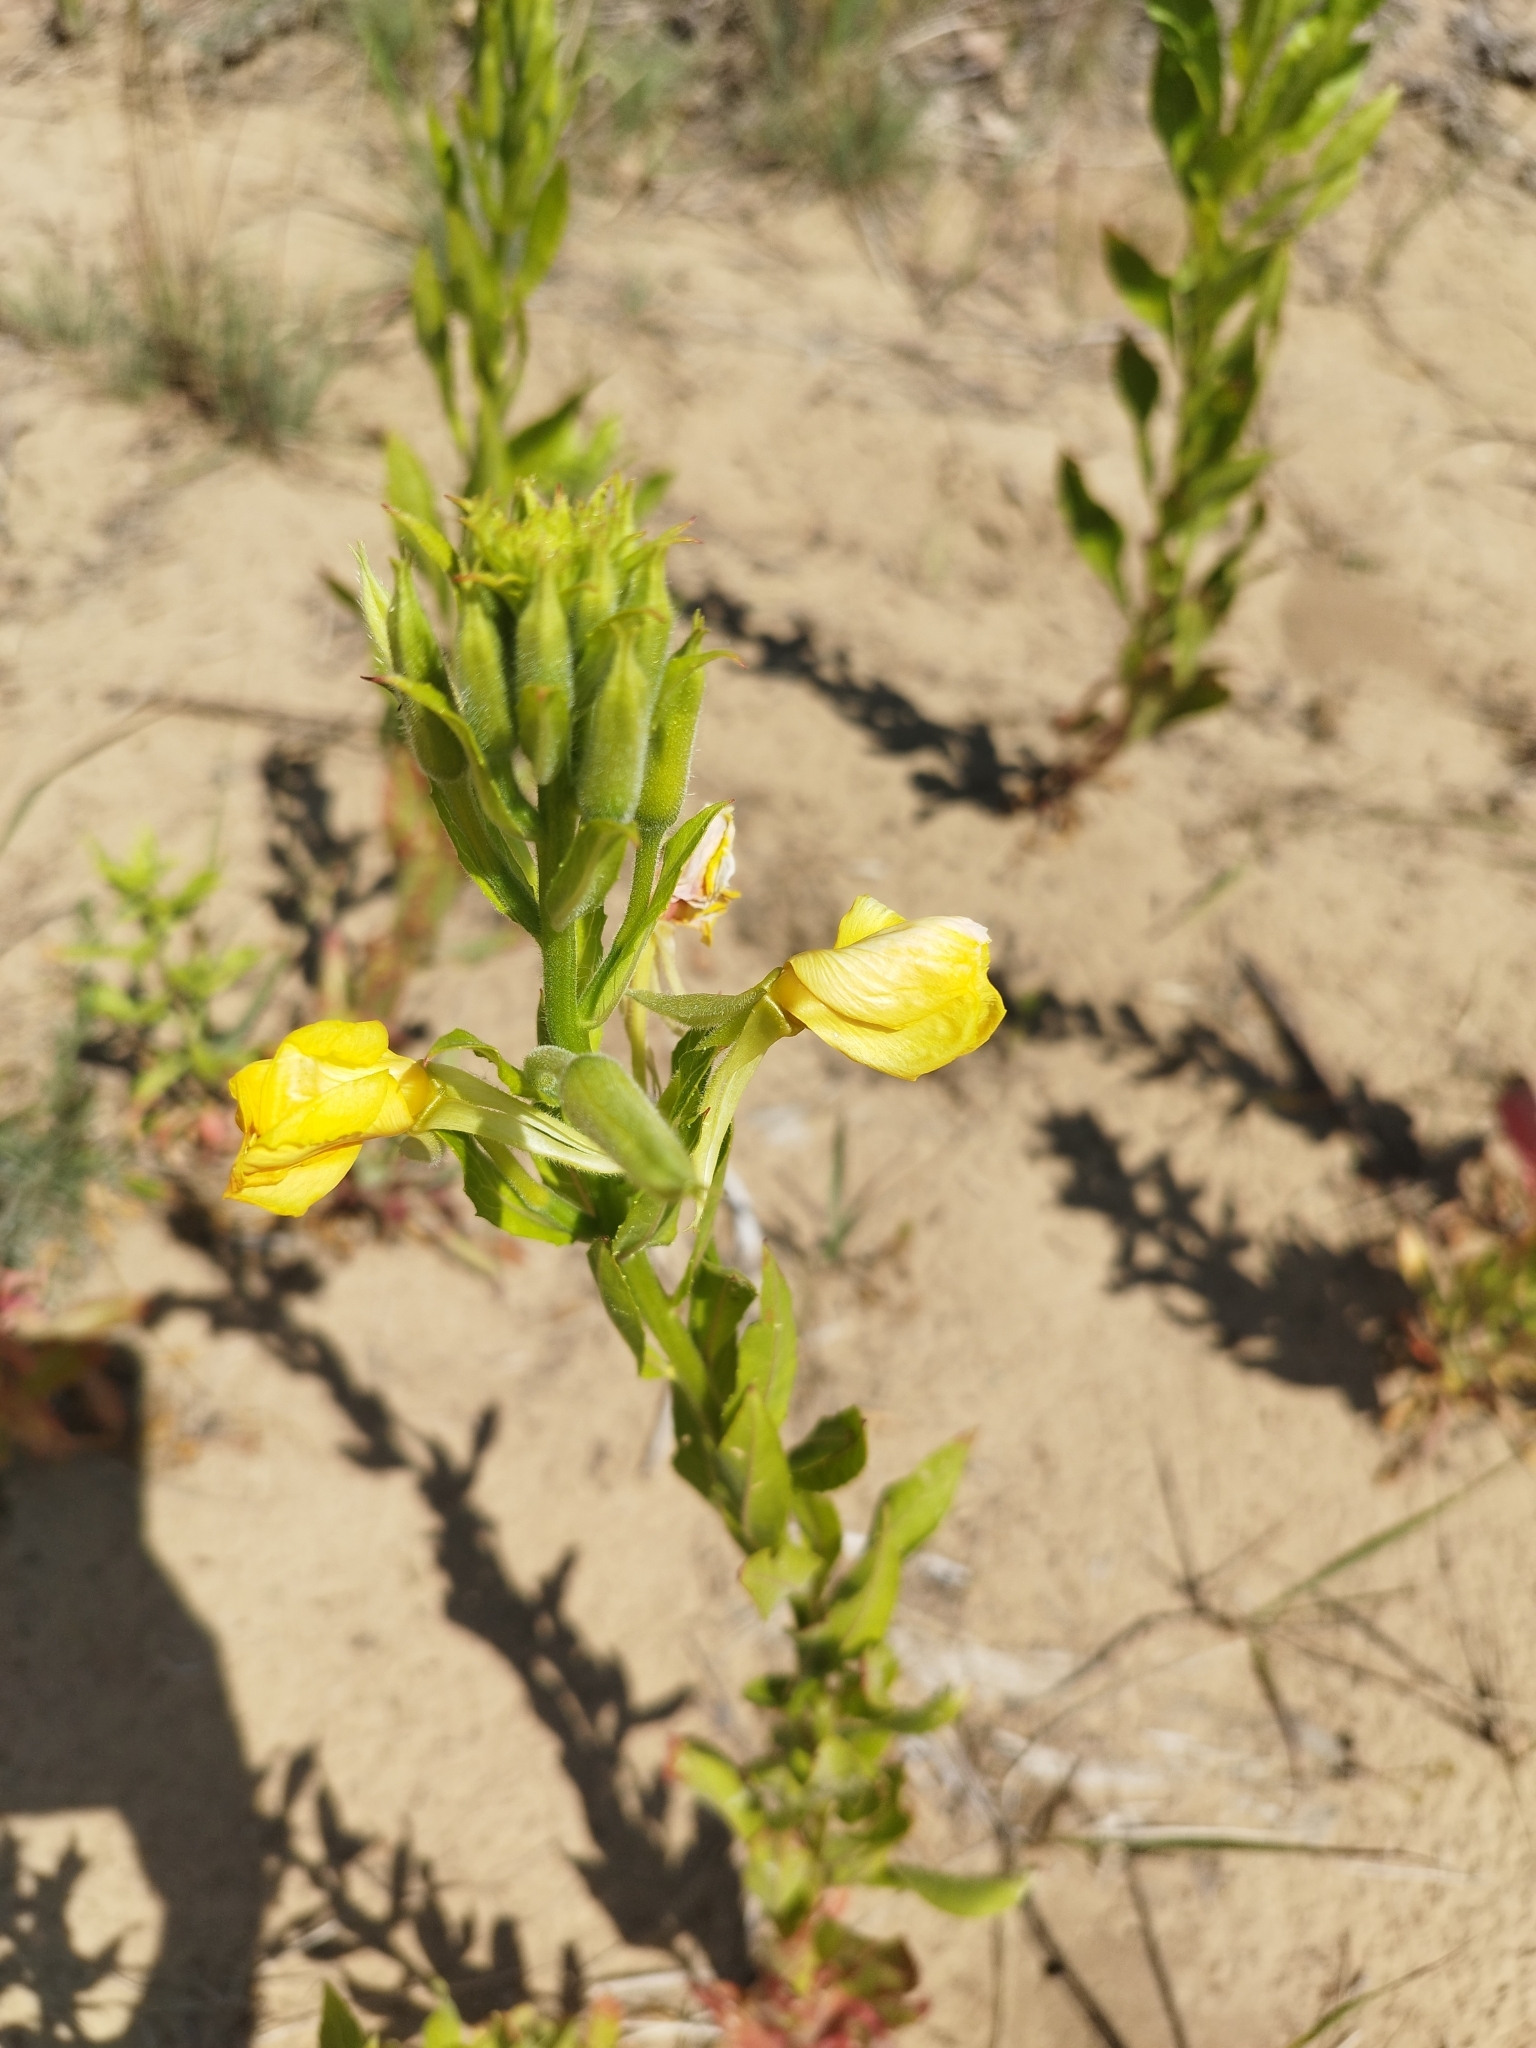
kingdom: Plantae
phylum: Tracheophyta
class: Magnoliopsida
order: Myrtales
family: Onagraceae
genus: Oenothera
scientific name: Oenothera biennis
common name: Common evening-primrose
